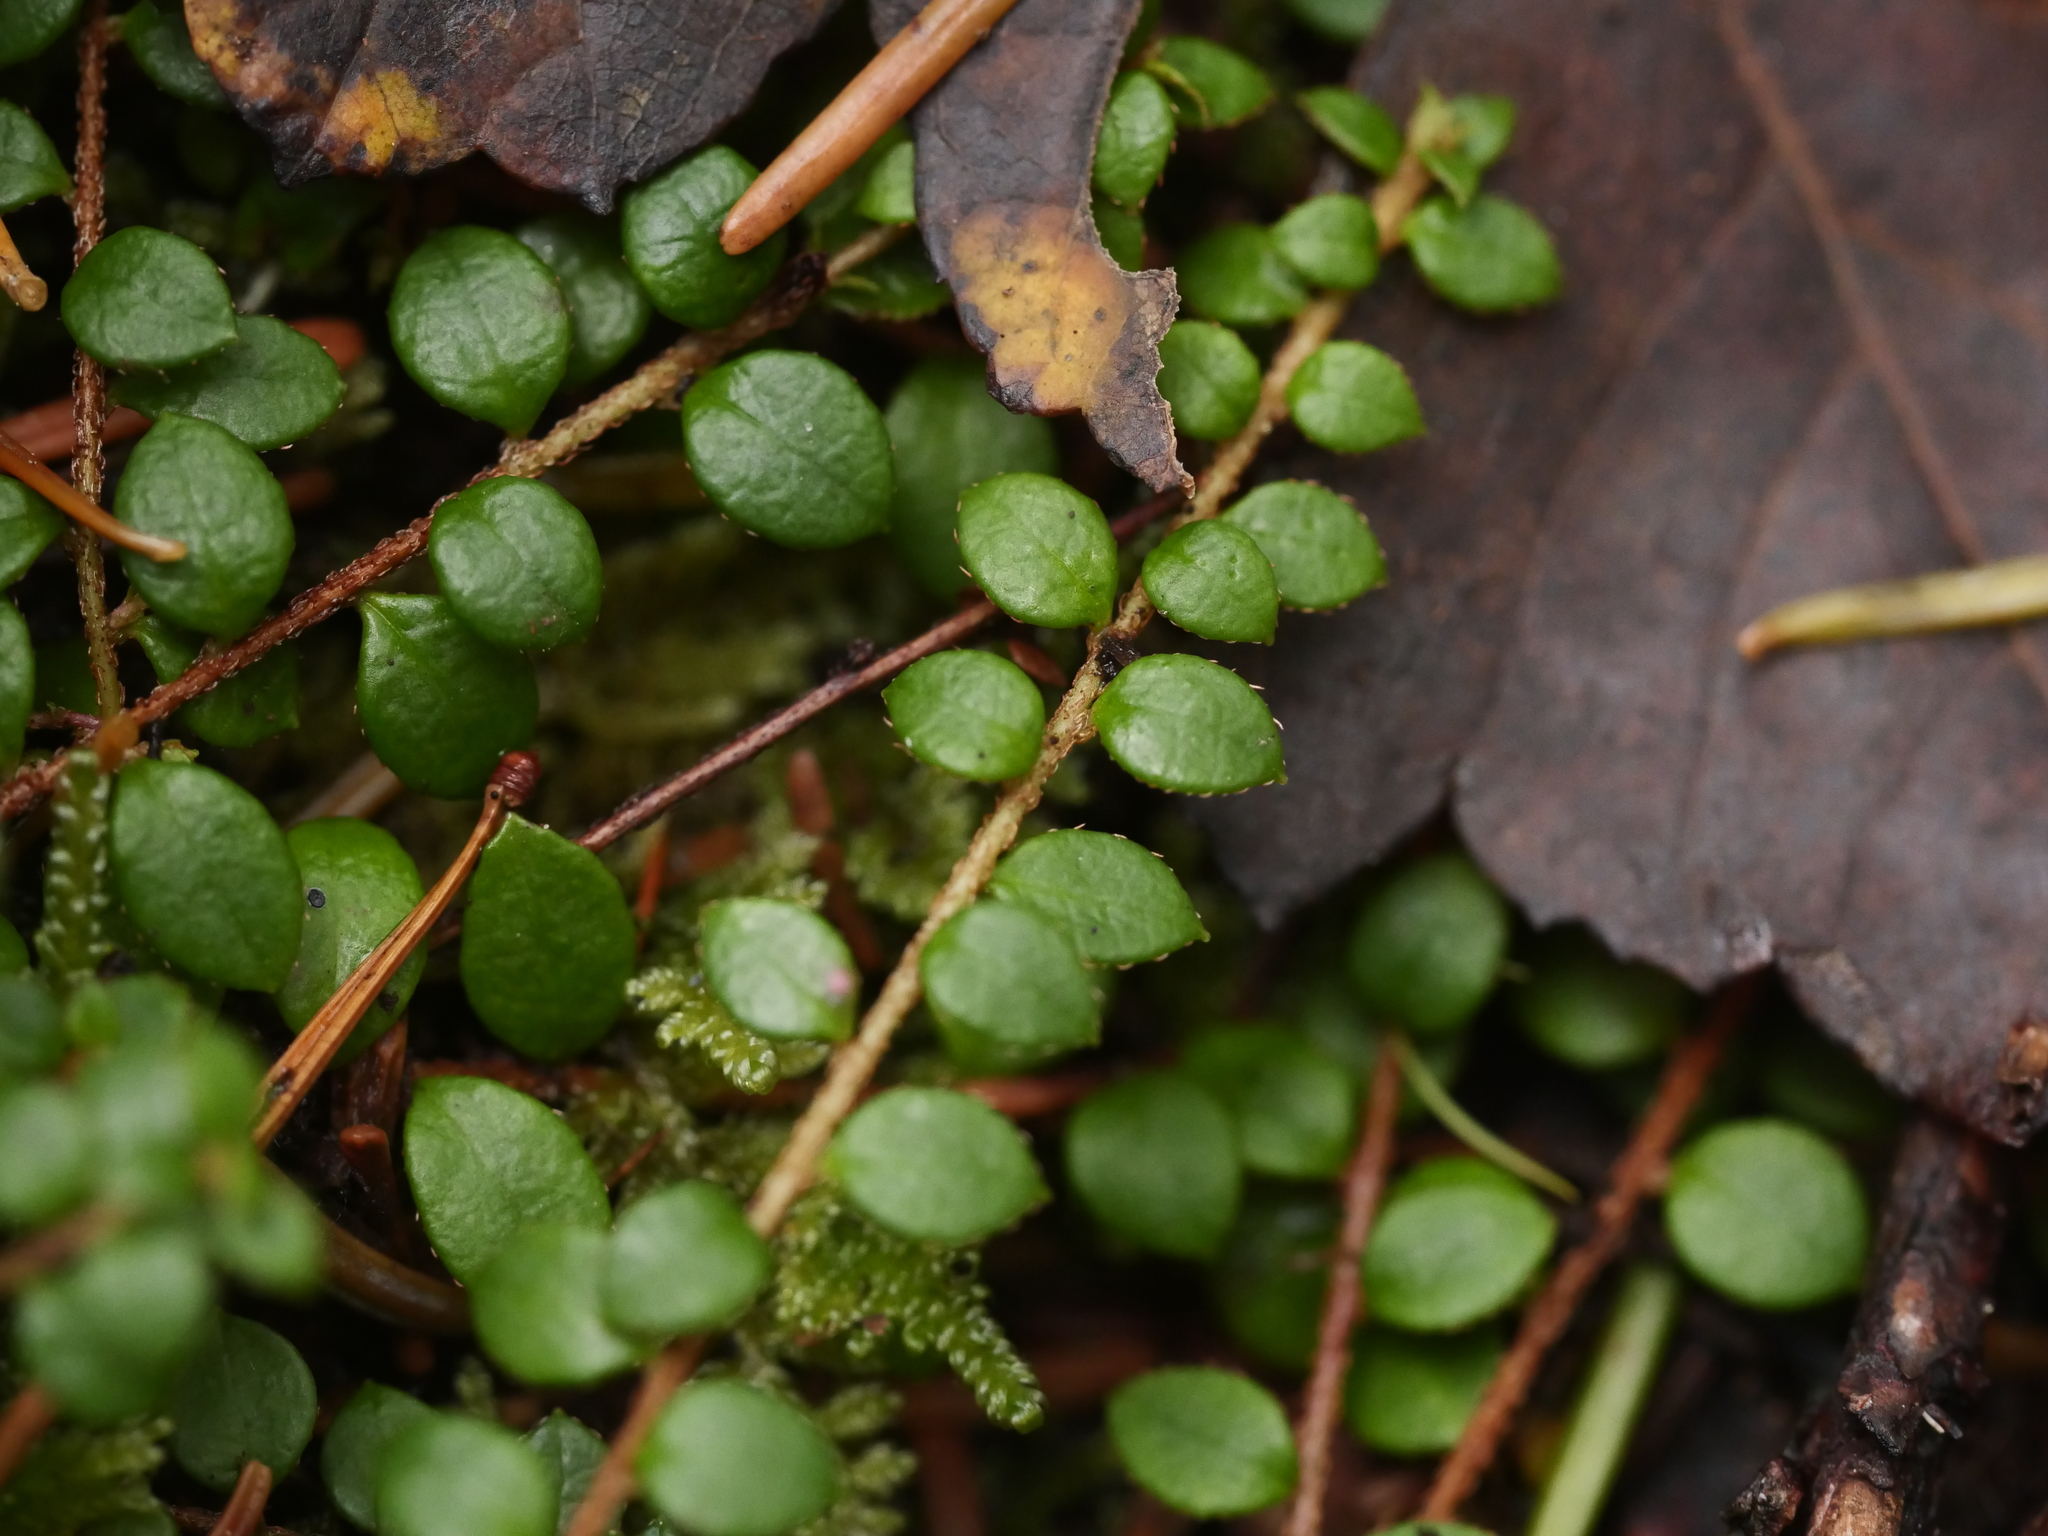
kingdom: Plantae
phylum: Tracheophyta
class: Magnoliopsida
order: Ericales
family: Ericaceae
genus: Gaultheria
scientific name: Gaultheria hispidula
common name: Cancer wintergreen
